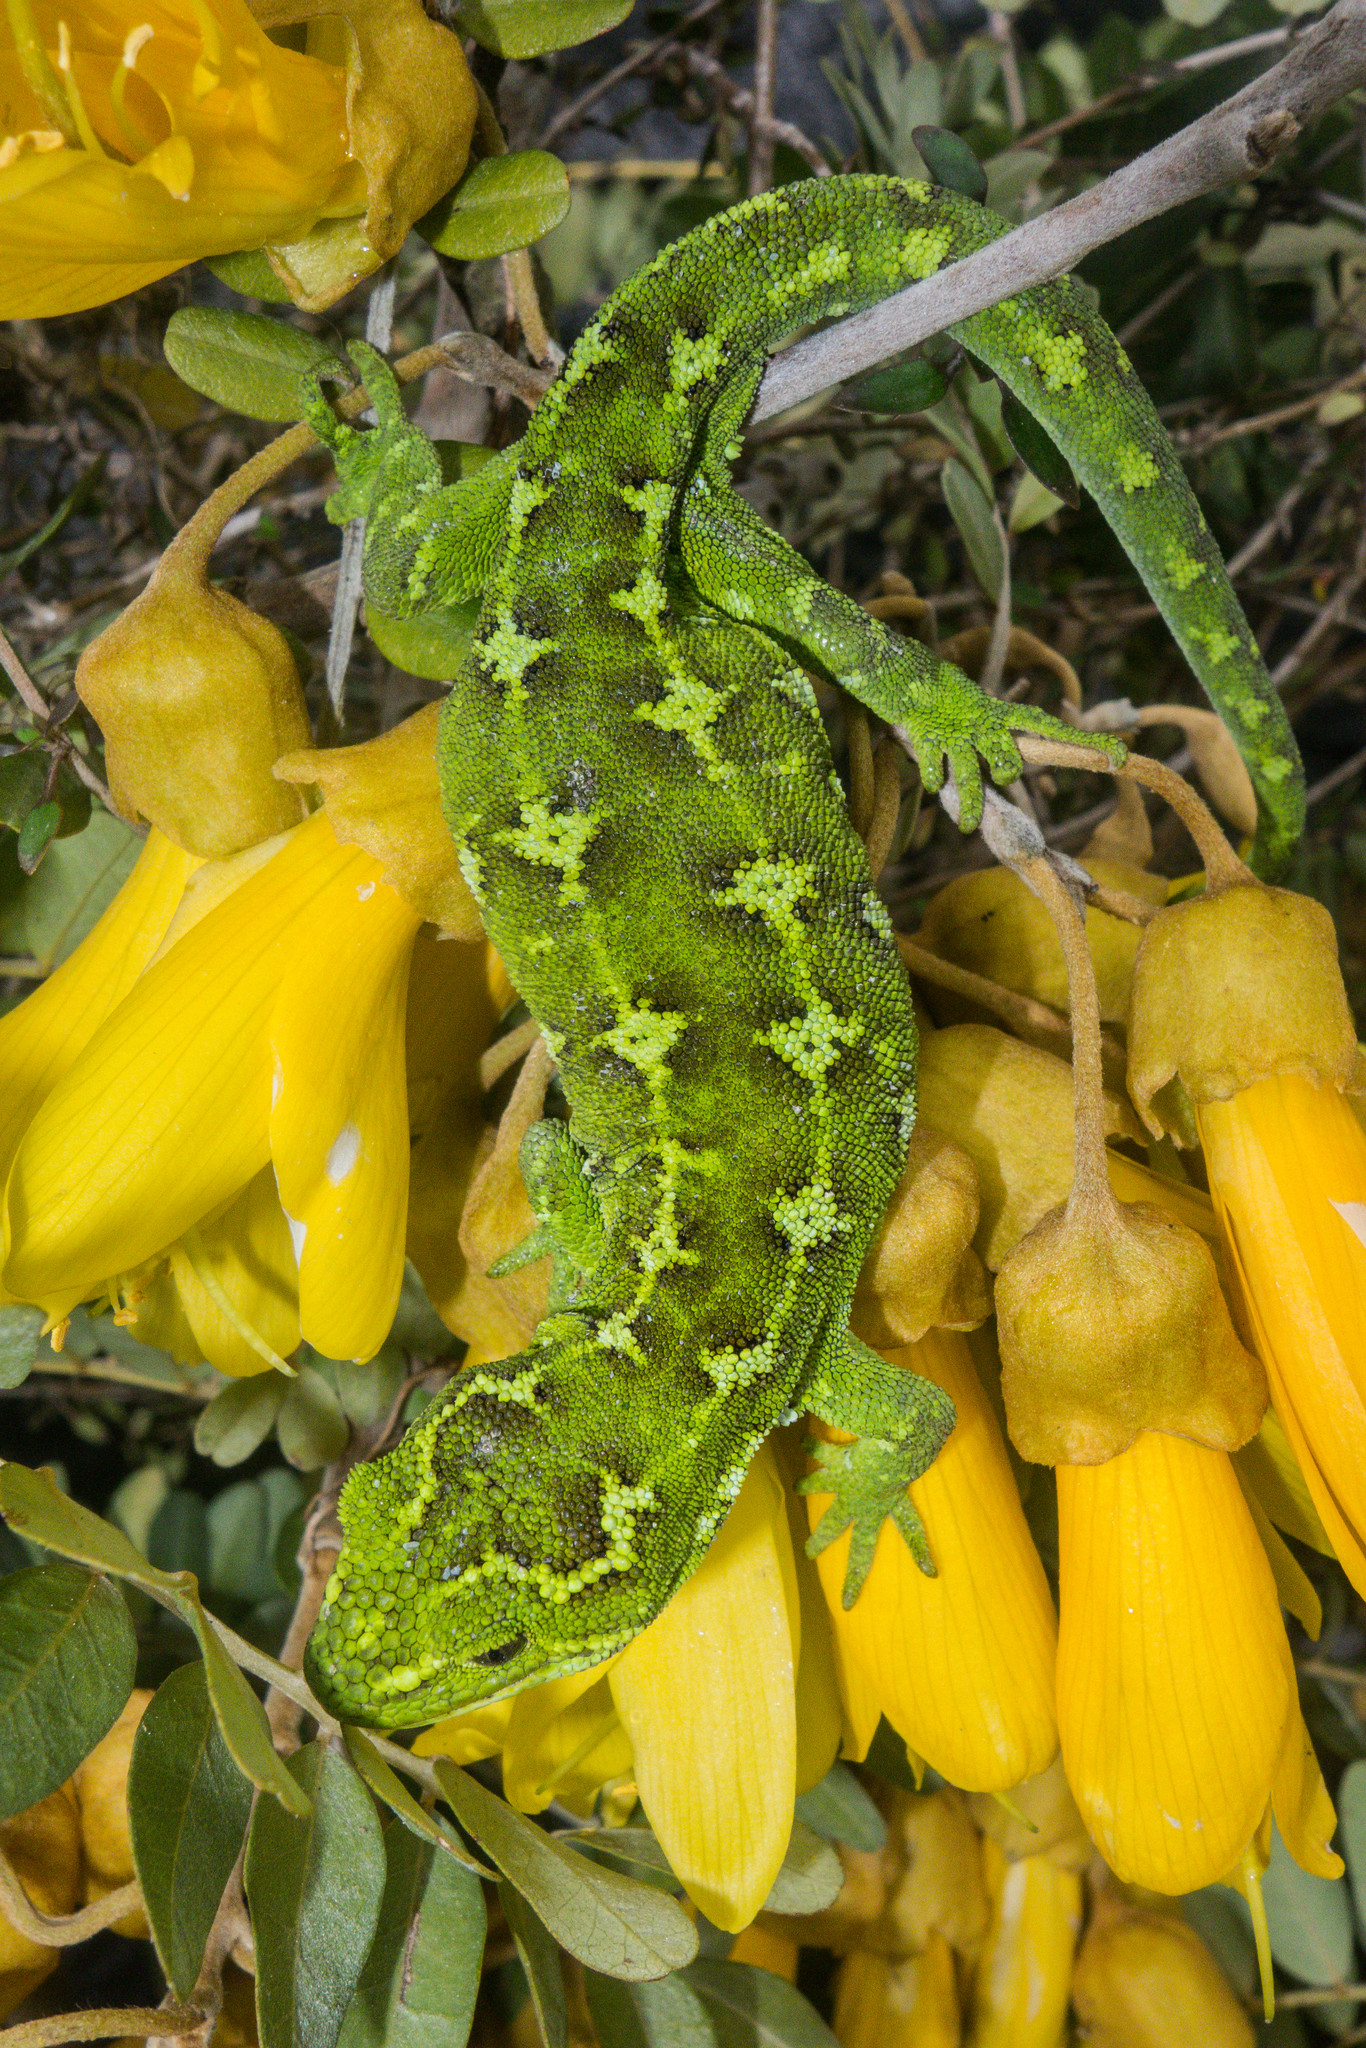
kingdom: Animalia
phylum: Chordata
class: Squamata
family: Diplodactylidae
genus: Naultinus
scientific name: Naultinus gemmeus
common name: Jewelled gecko
